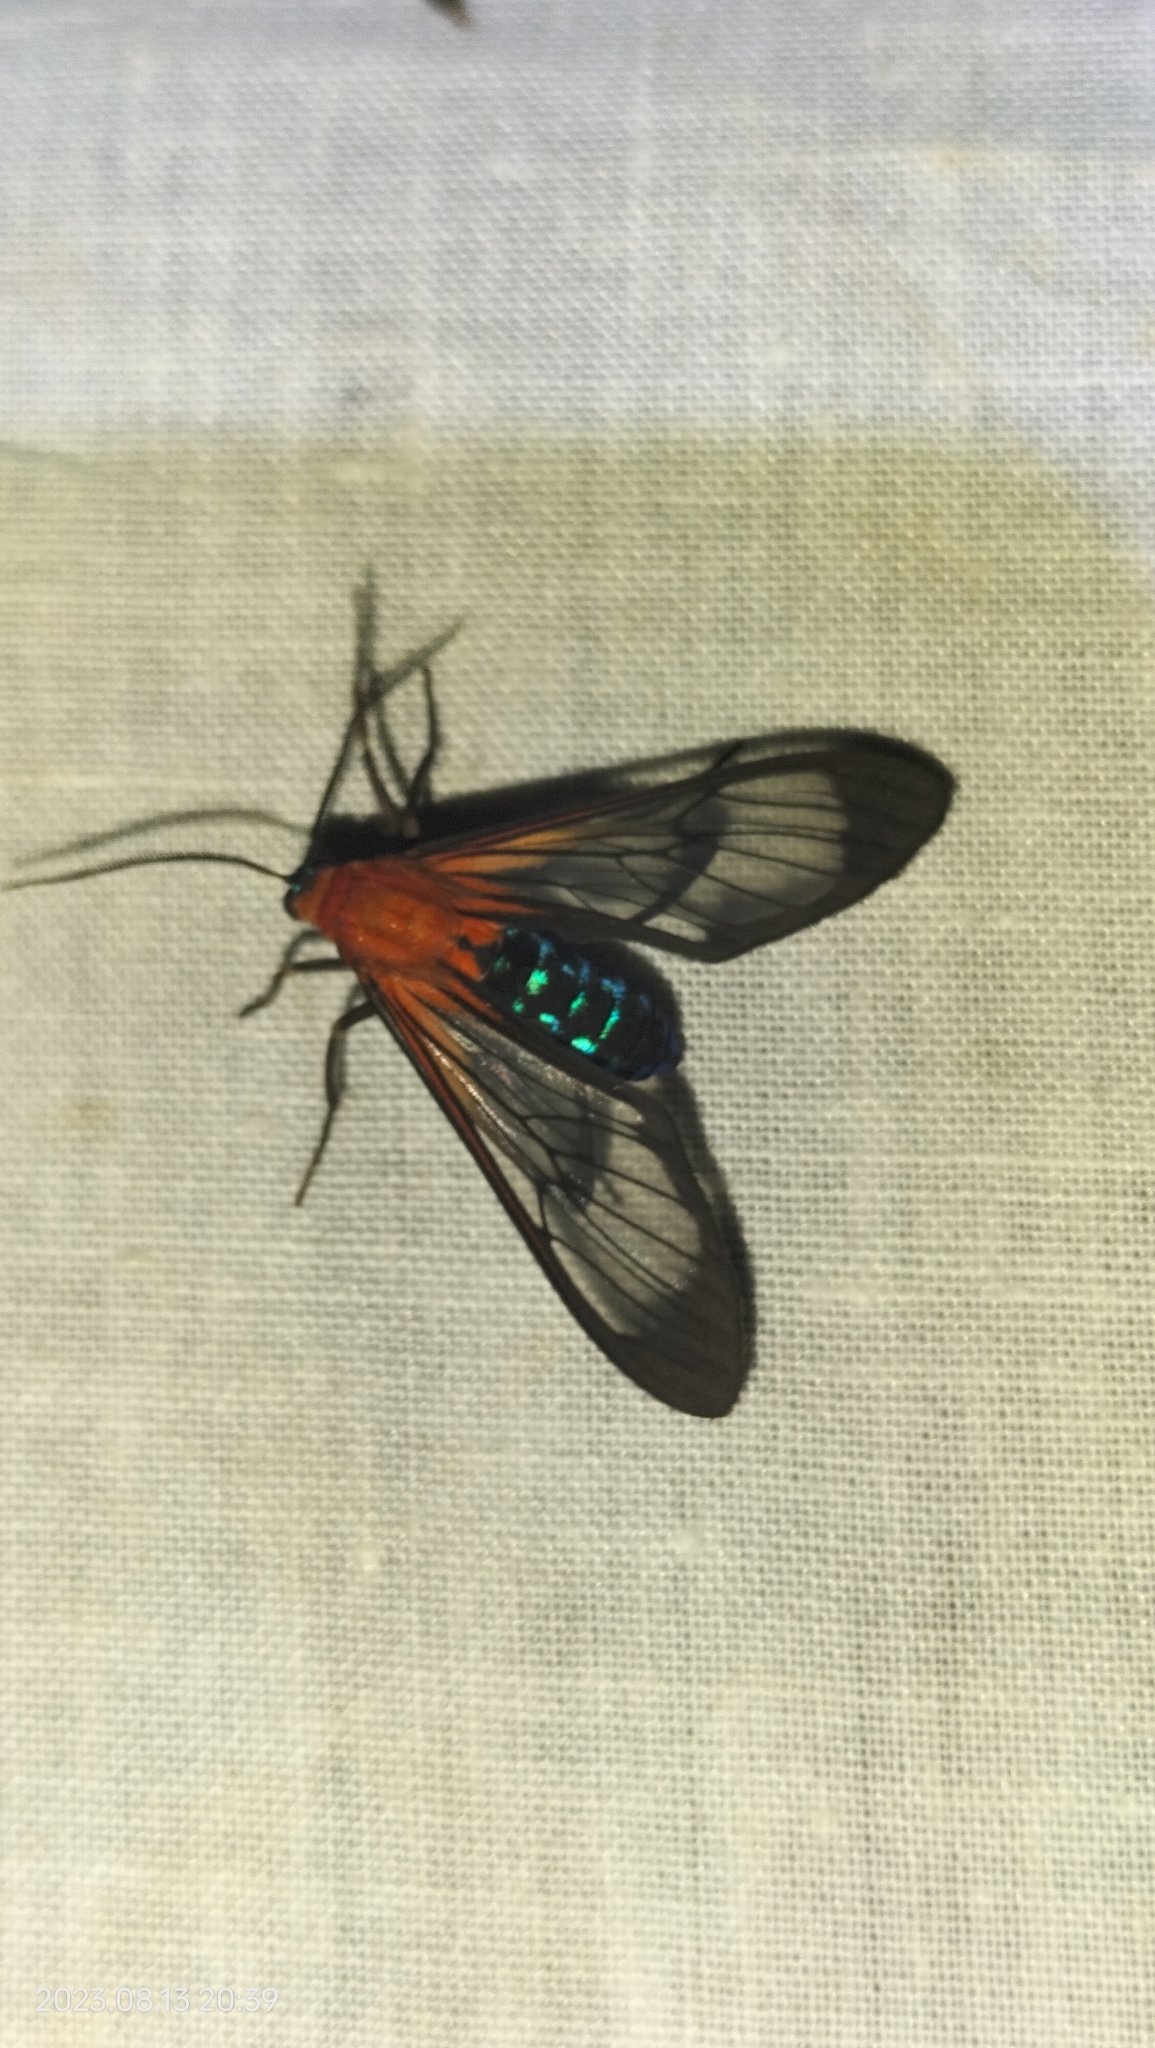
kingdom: Animalia
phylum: Arthropoda
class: Insecta
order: Lepidoptera
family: Erebidae
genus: Cosmosoma
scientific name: Cosmosoma telephus
